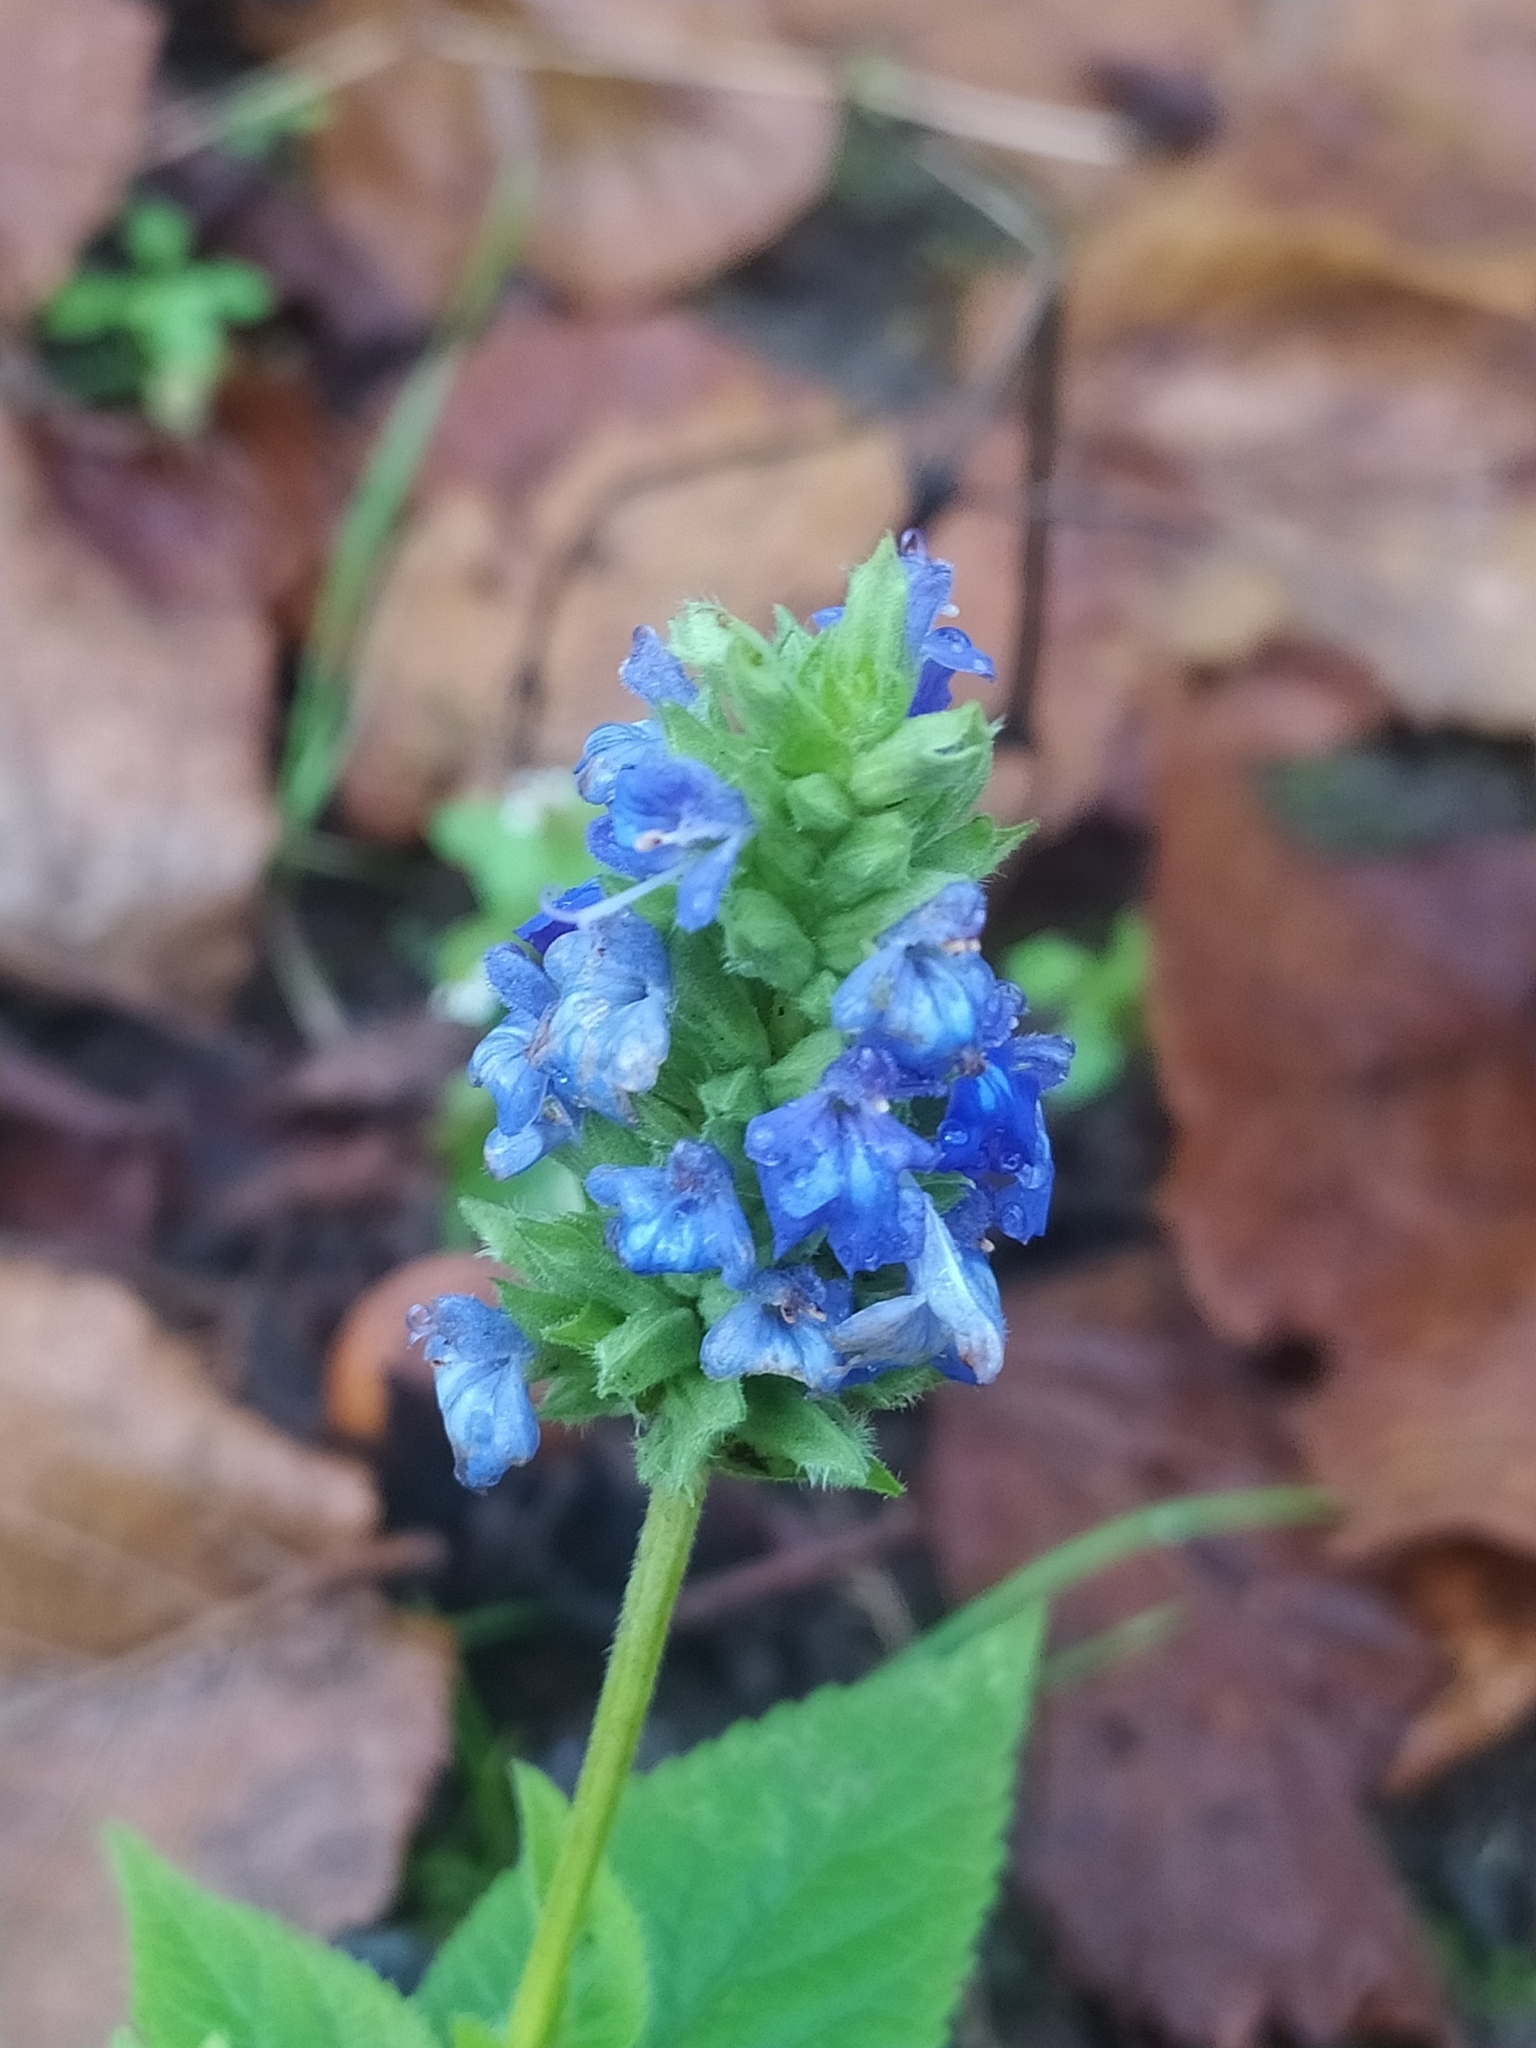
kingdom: Plantae
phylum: Tracheophyta
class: Magnoliopsida
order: Lamiales
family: Lamiaceae
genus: Salvia
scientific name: Salvia hispanica
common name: Chia
